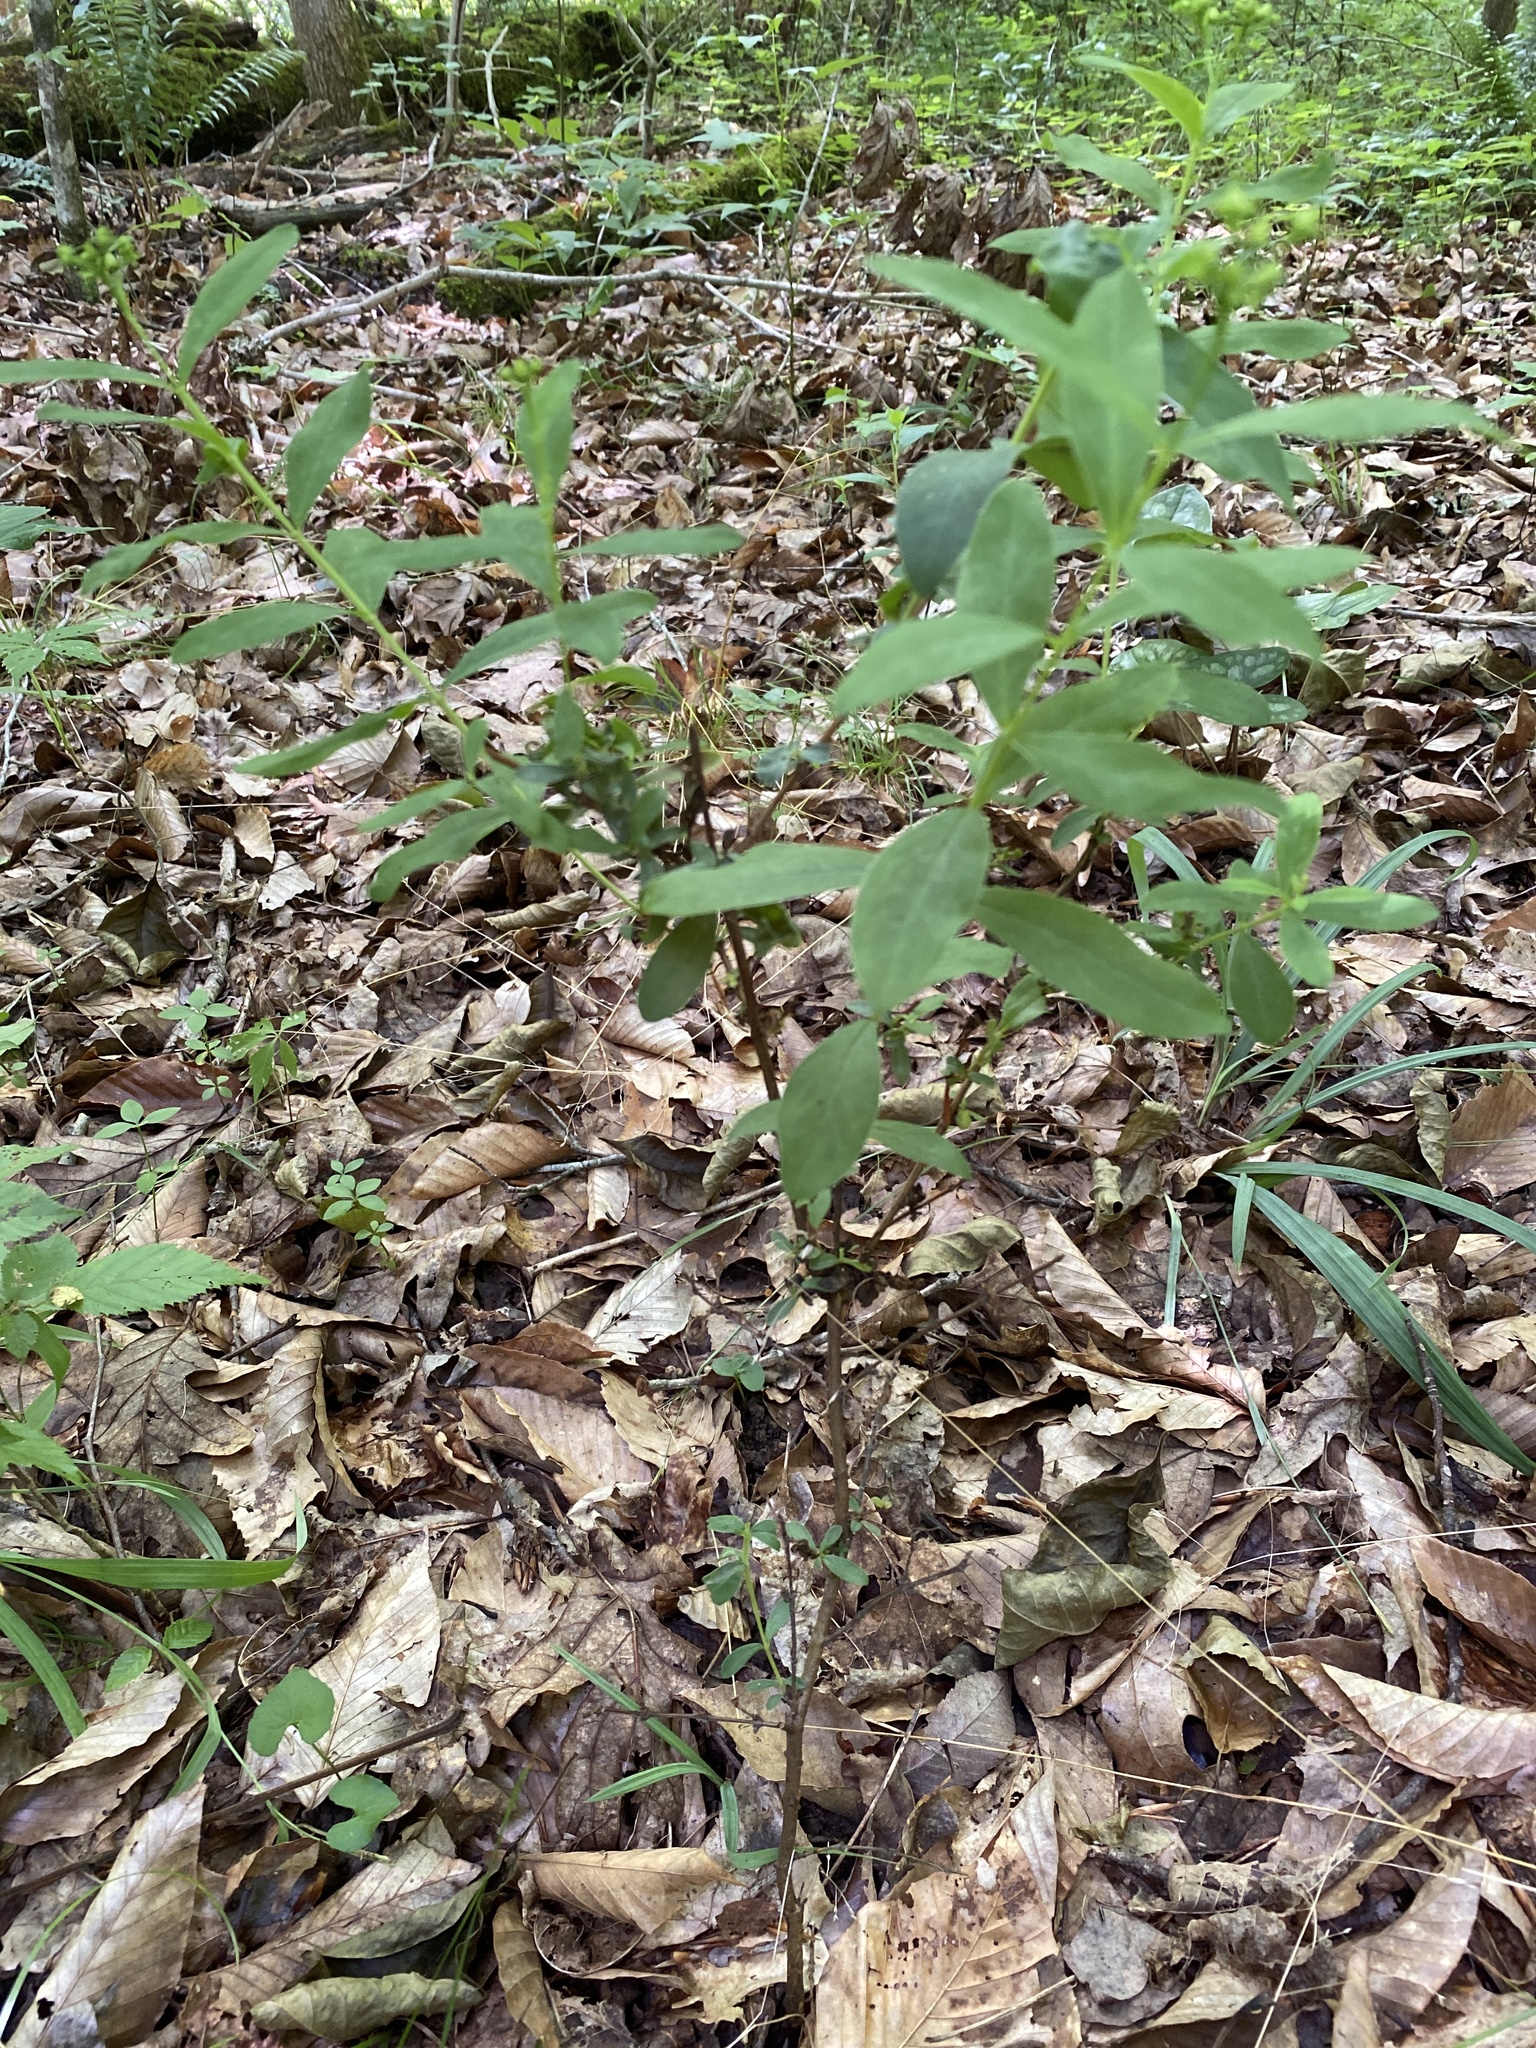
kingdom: Plantae
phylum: Tracheophyta
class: Magnoliopsida
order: Malpighiales
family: Hypericaceae
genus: Hypericum
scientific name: Hypericum nudiflorum
